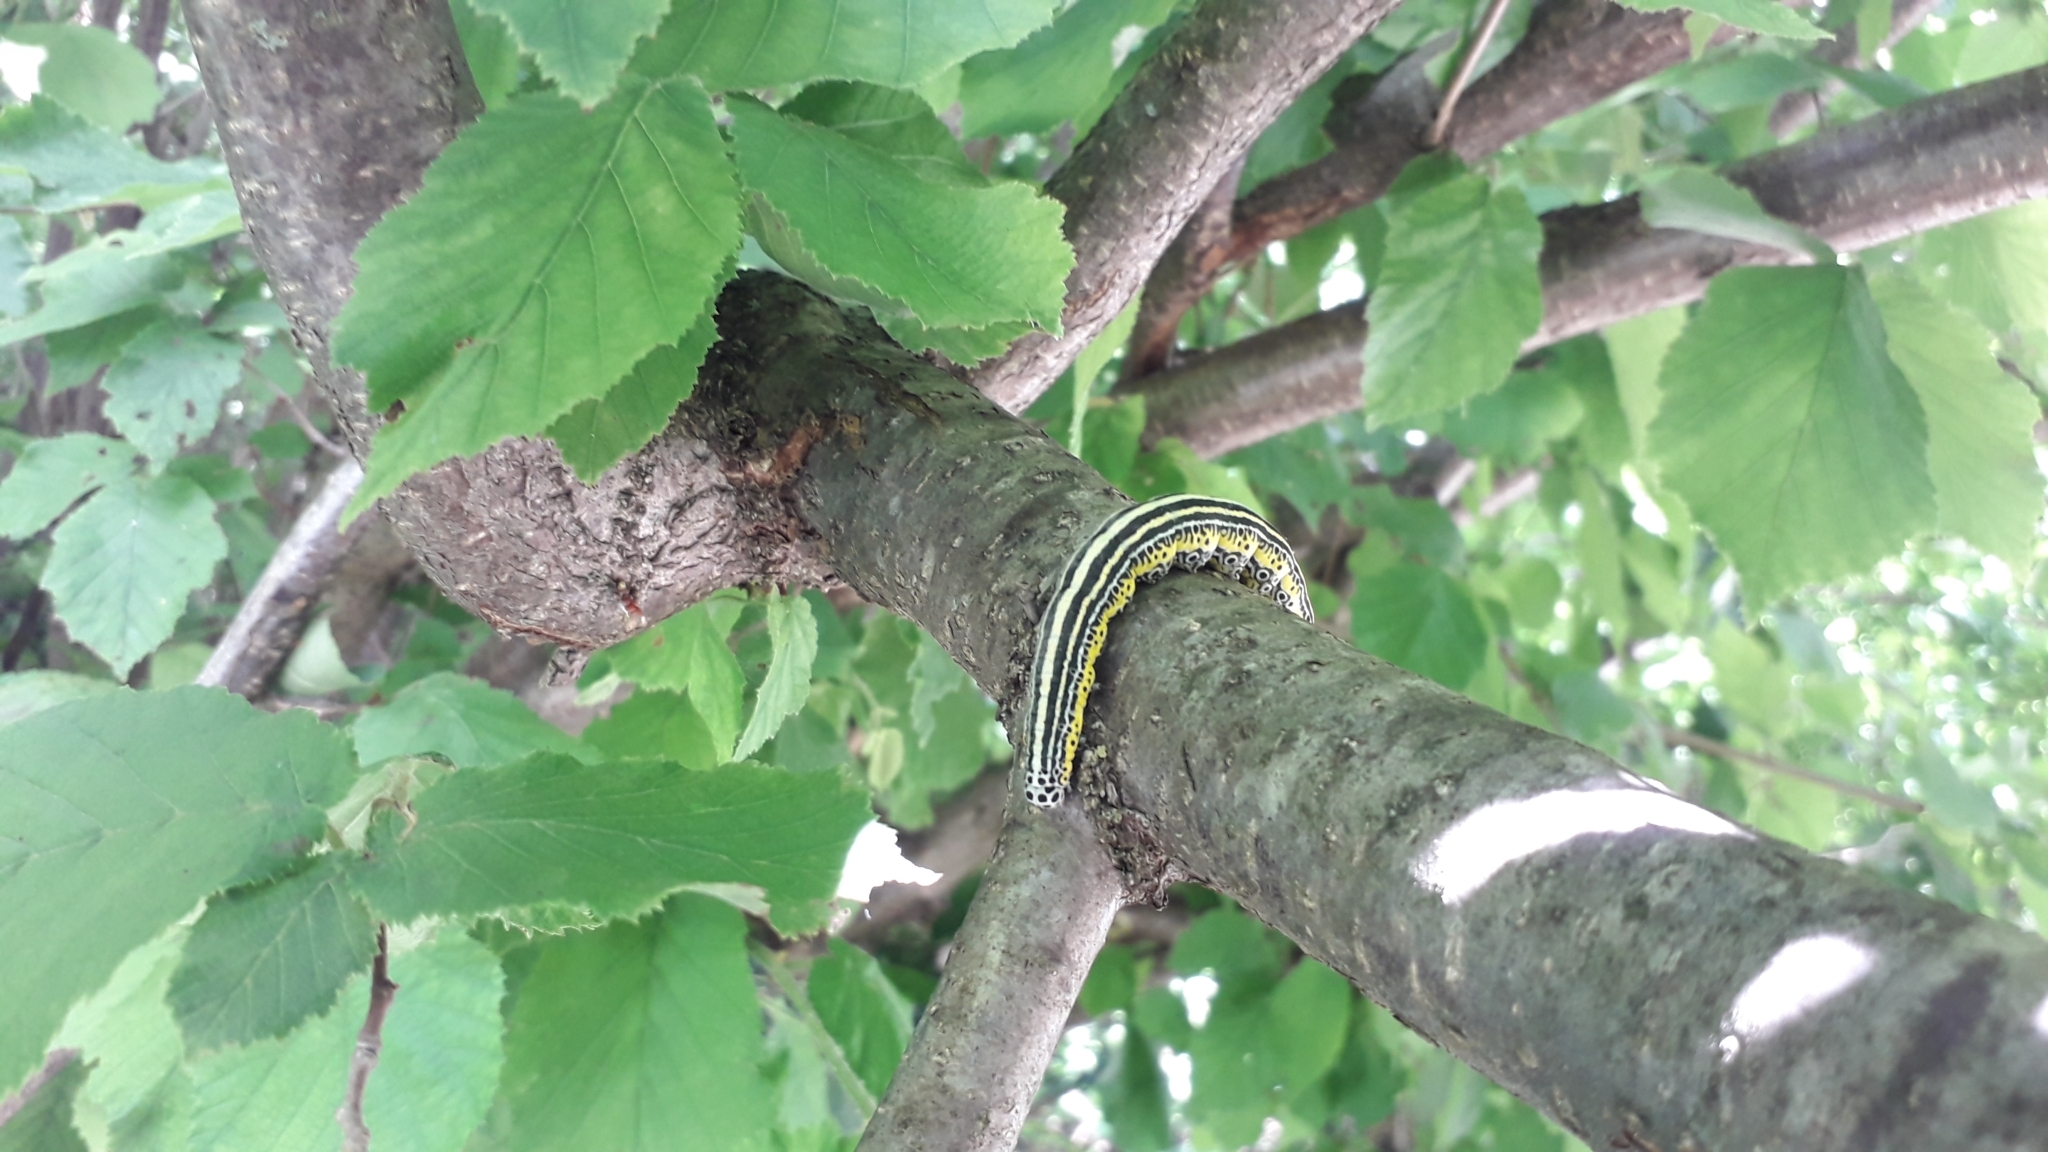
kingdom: Animalia
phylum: Arthropoda
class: Insecta
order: Lepidoptera
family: Erebidae
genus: Apopestes
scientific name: Apopestes spectrum
